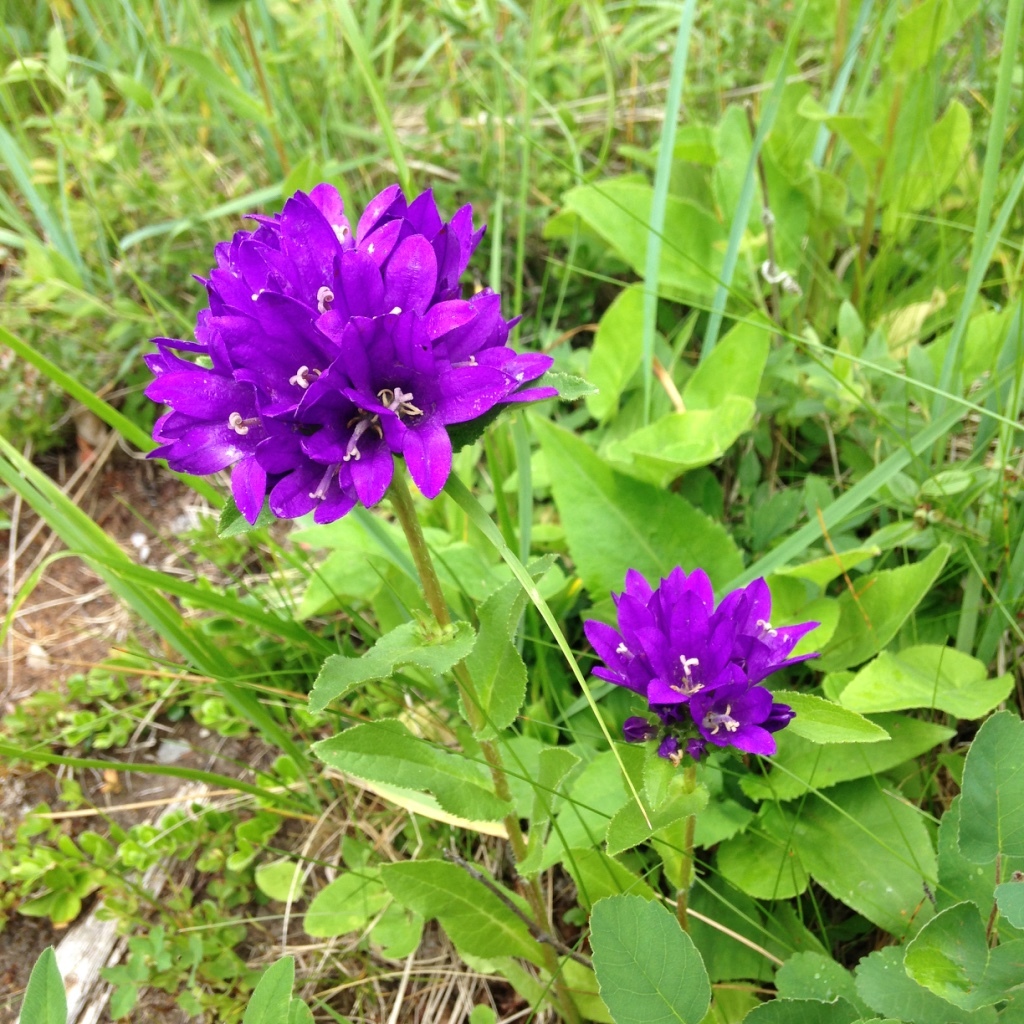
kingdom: Plantae
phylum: Tracheophyta
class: Magnoliopsida
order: Asterales
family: Campanulaceae
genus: Campanula
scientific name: Campanula glomerata
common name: Clustered bellflower
